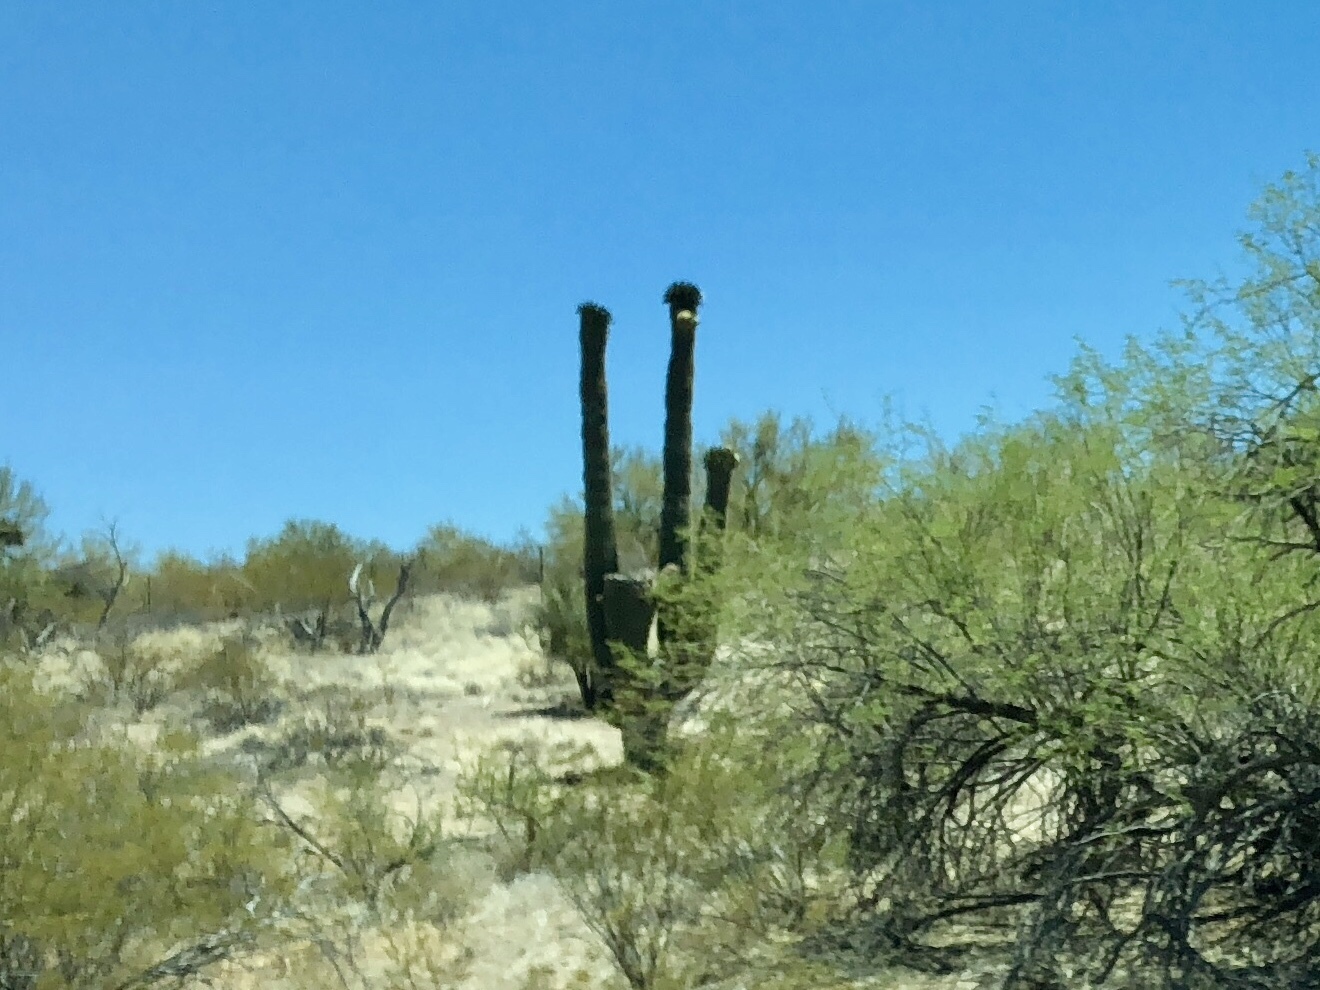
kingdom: Plantae
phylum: Tracheophyta
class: Magnoliopsida
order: Caryophyllales
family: Cactaceae
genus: Carnegiea
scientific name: Carnegiea gigantea
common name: Saguaro
